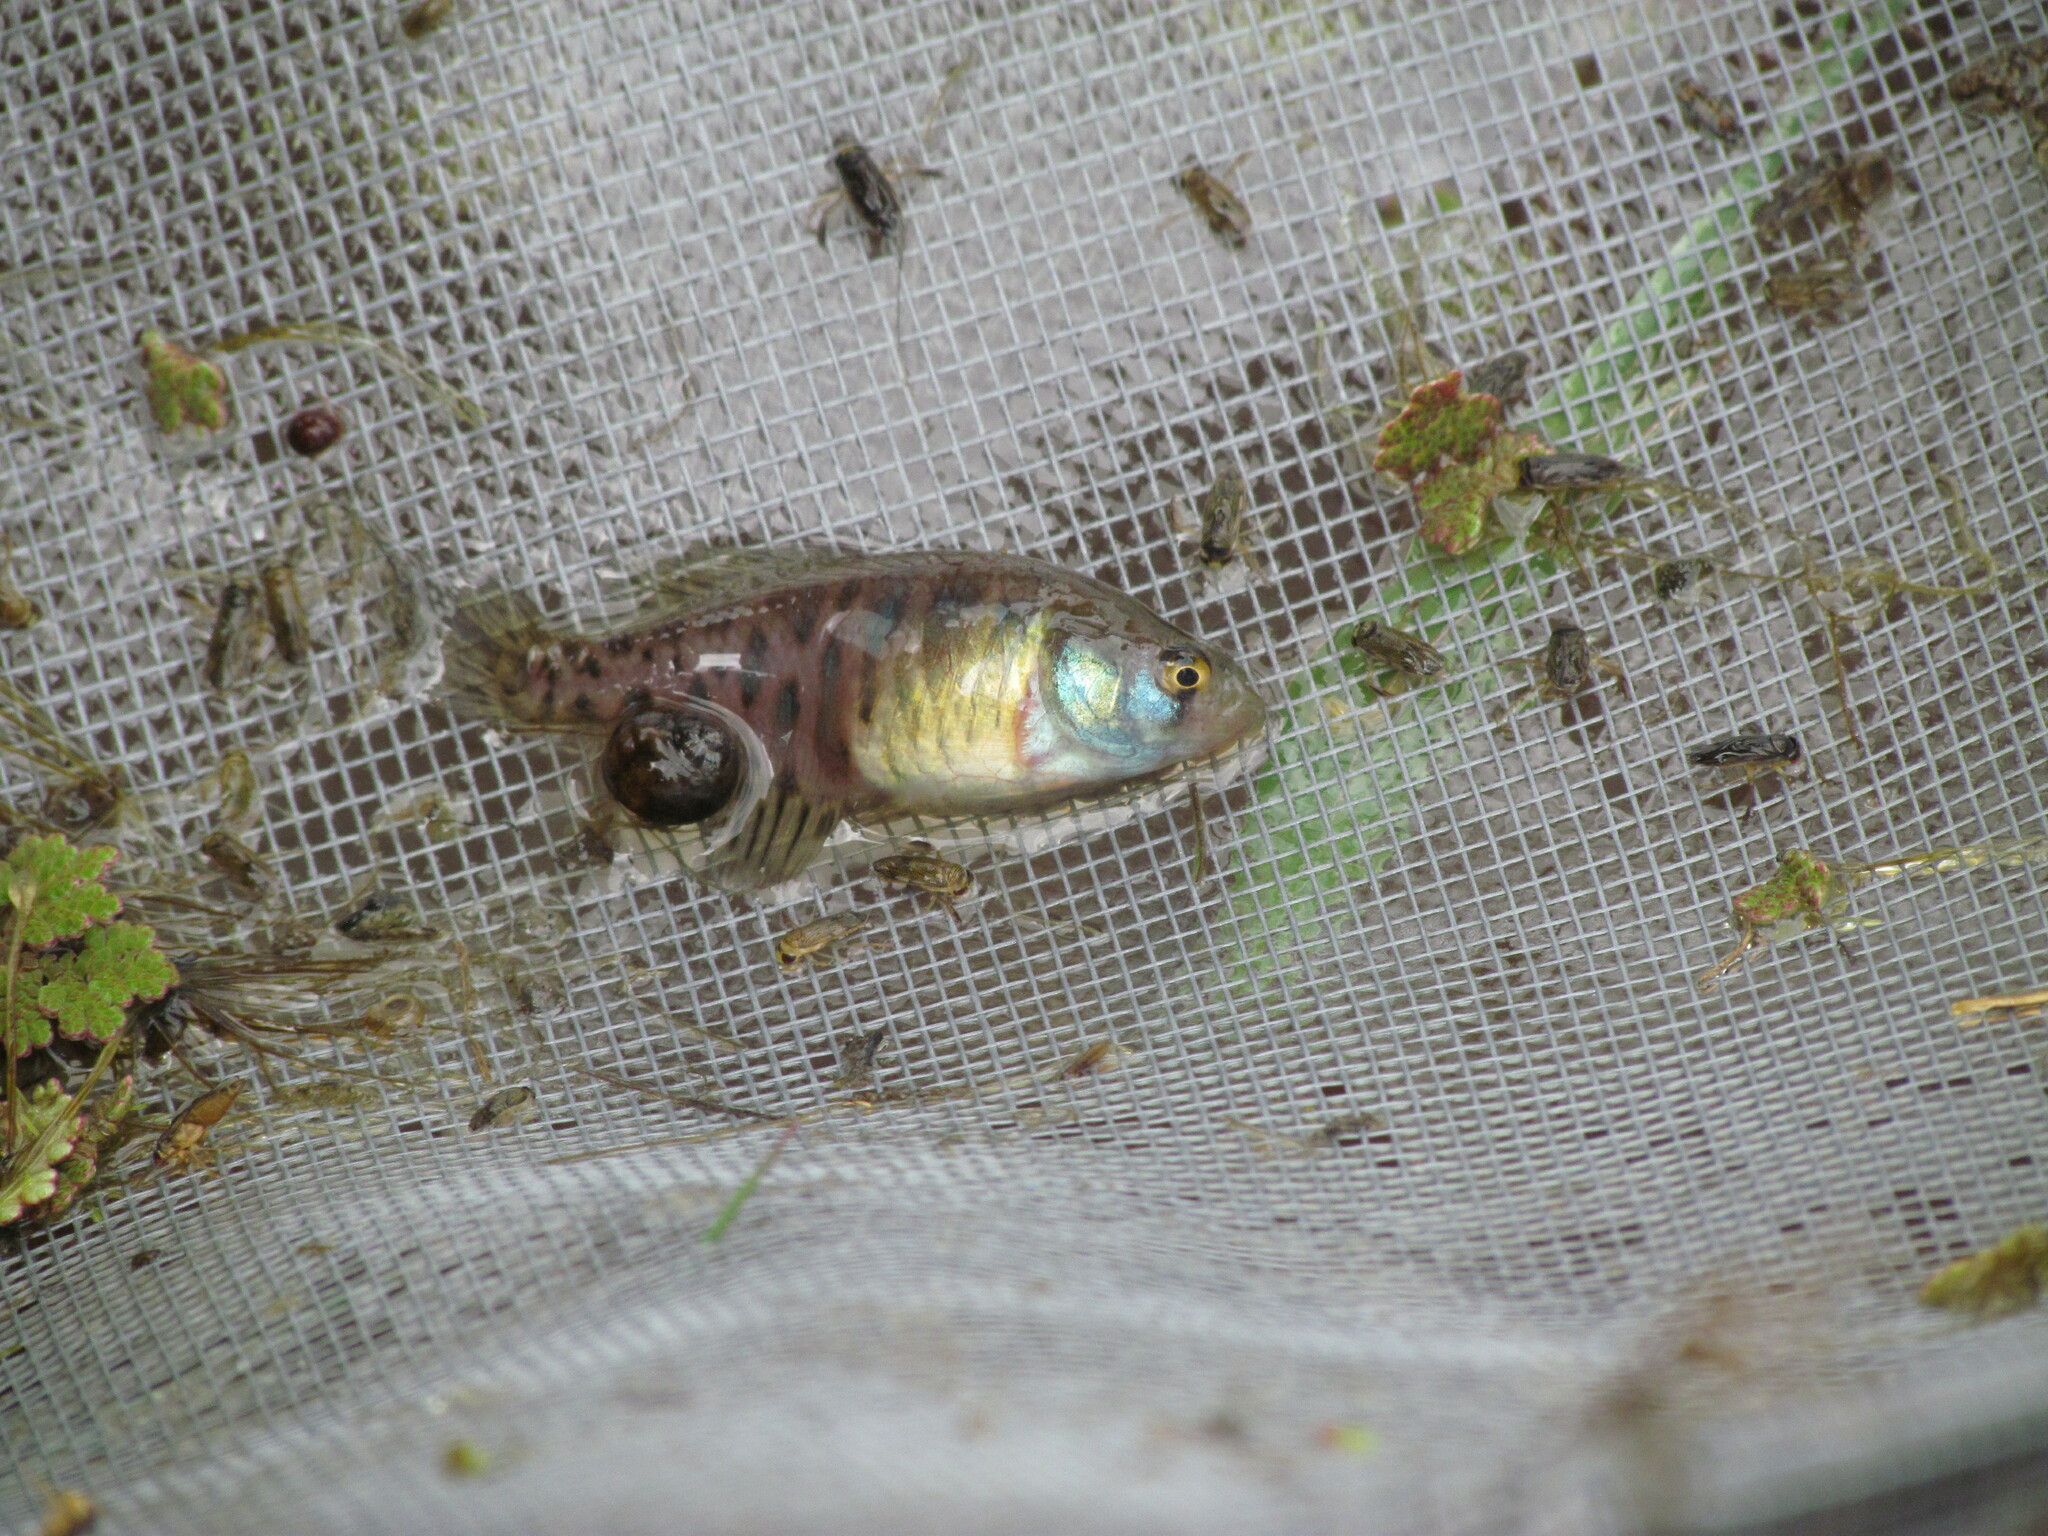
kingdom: Animalia
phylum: Chordata
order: Cyprinodontiformes
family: Rivulidae
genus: Austrolebias
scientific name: Austrolebias bellottii
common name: Argentine pearlfish
